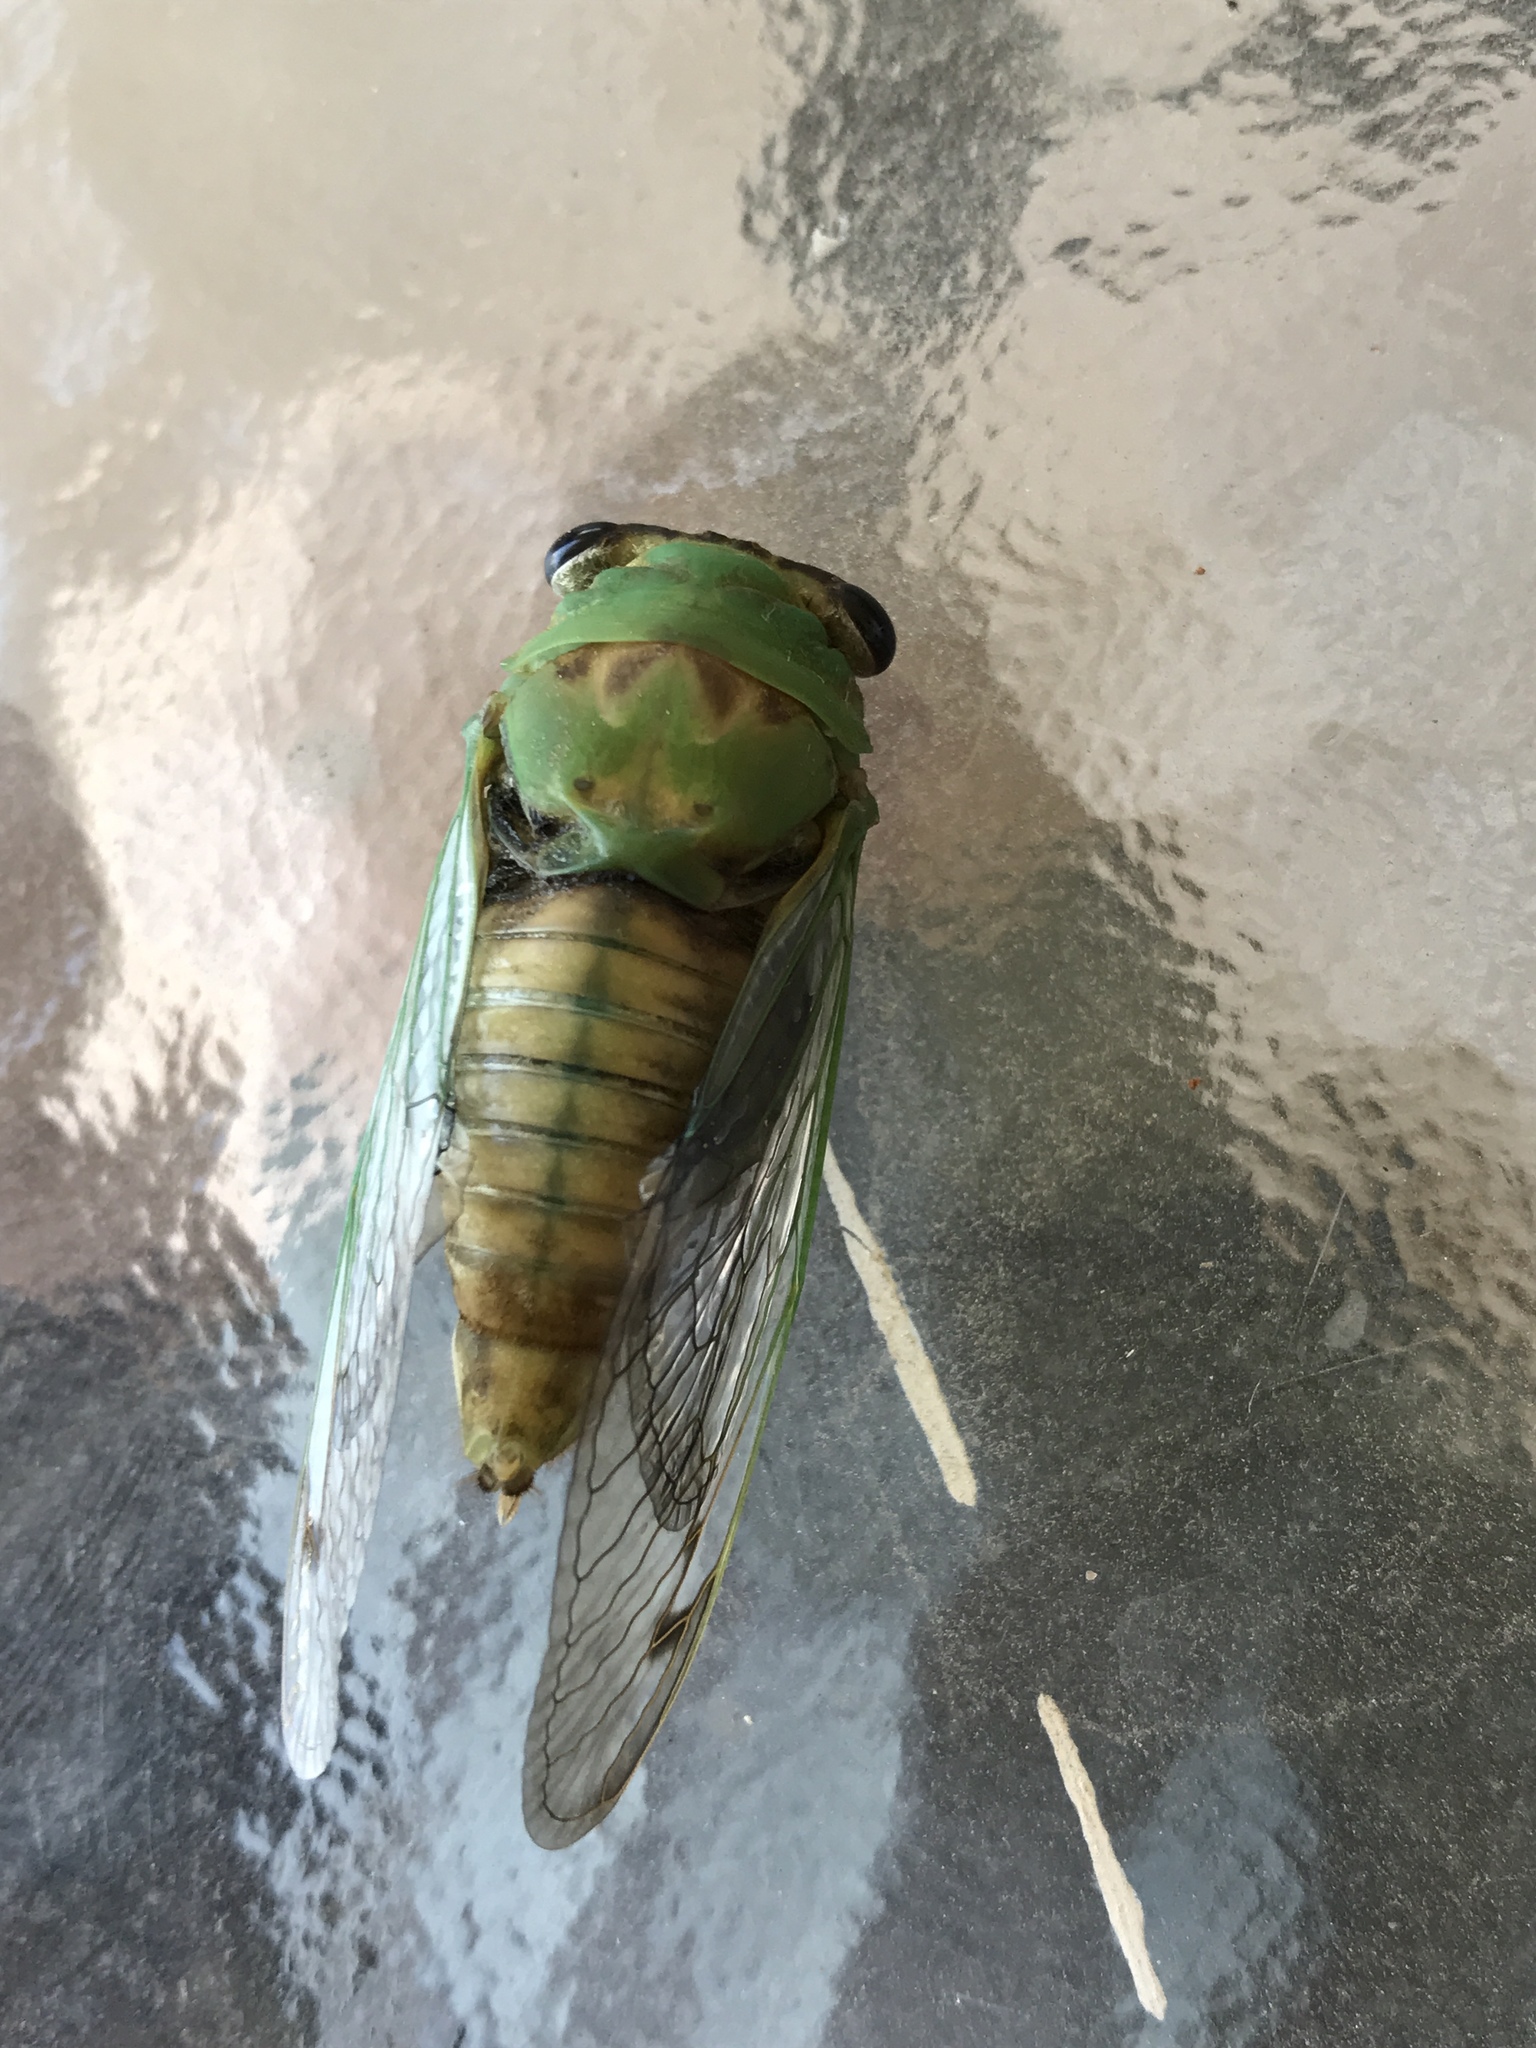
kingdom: Animalia
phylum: Arthropoda
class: Insecta
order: Hemiptera
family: Cicadidae
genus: Neotibicen
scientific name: Neotibicen superbus
